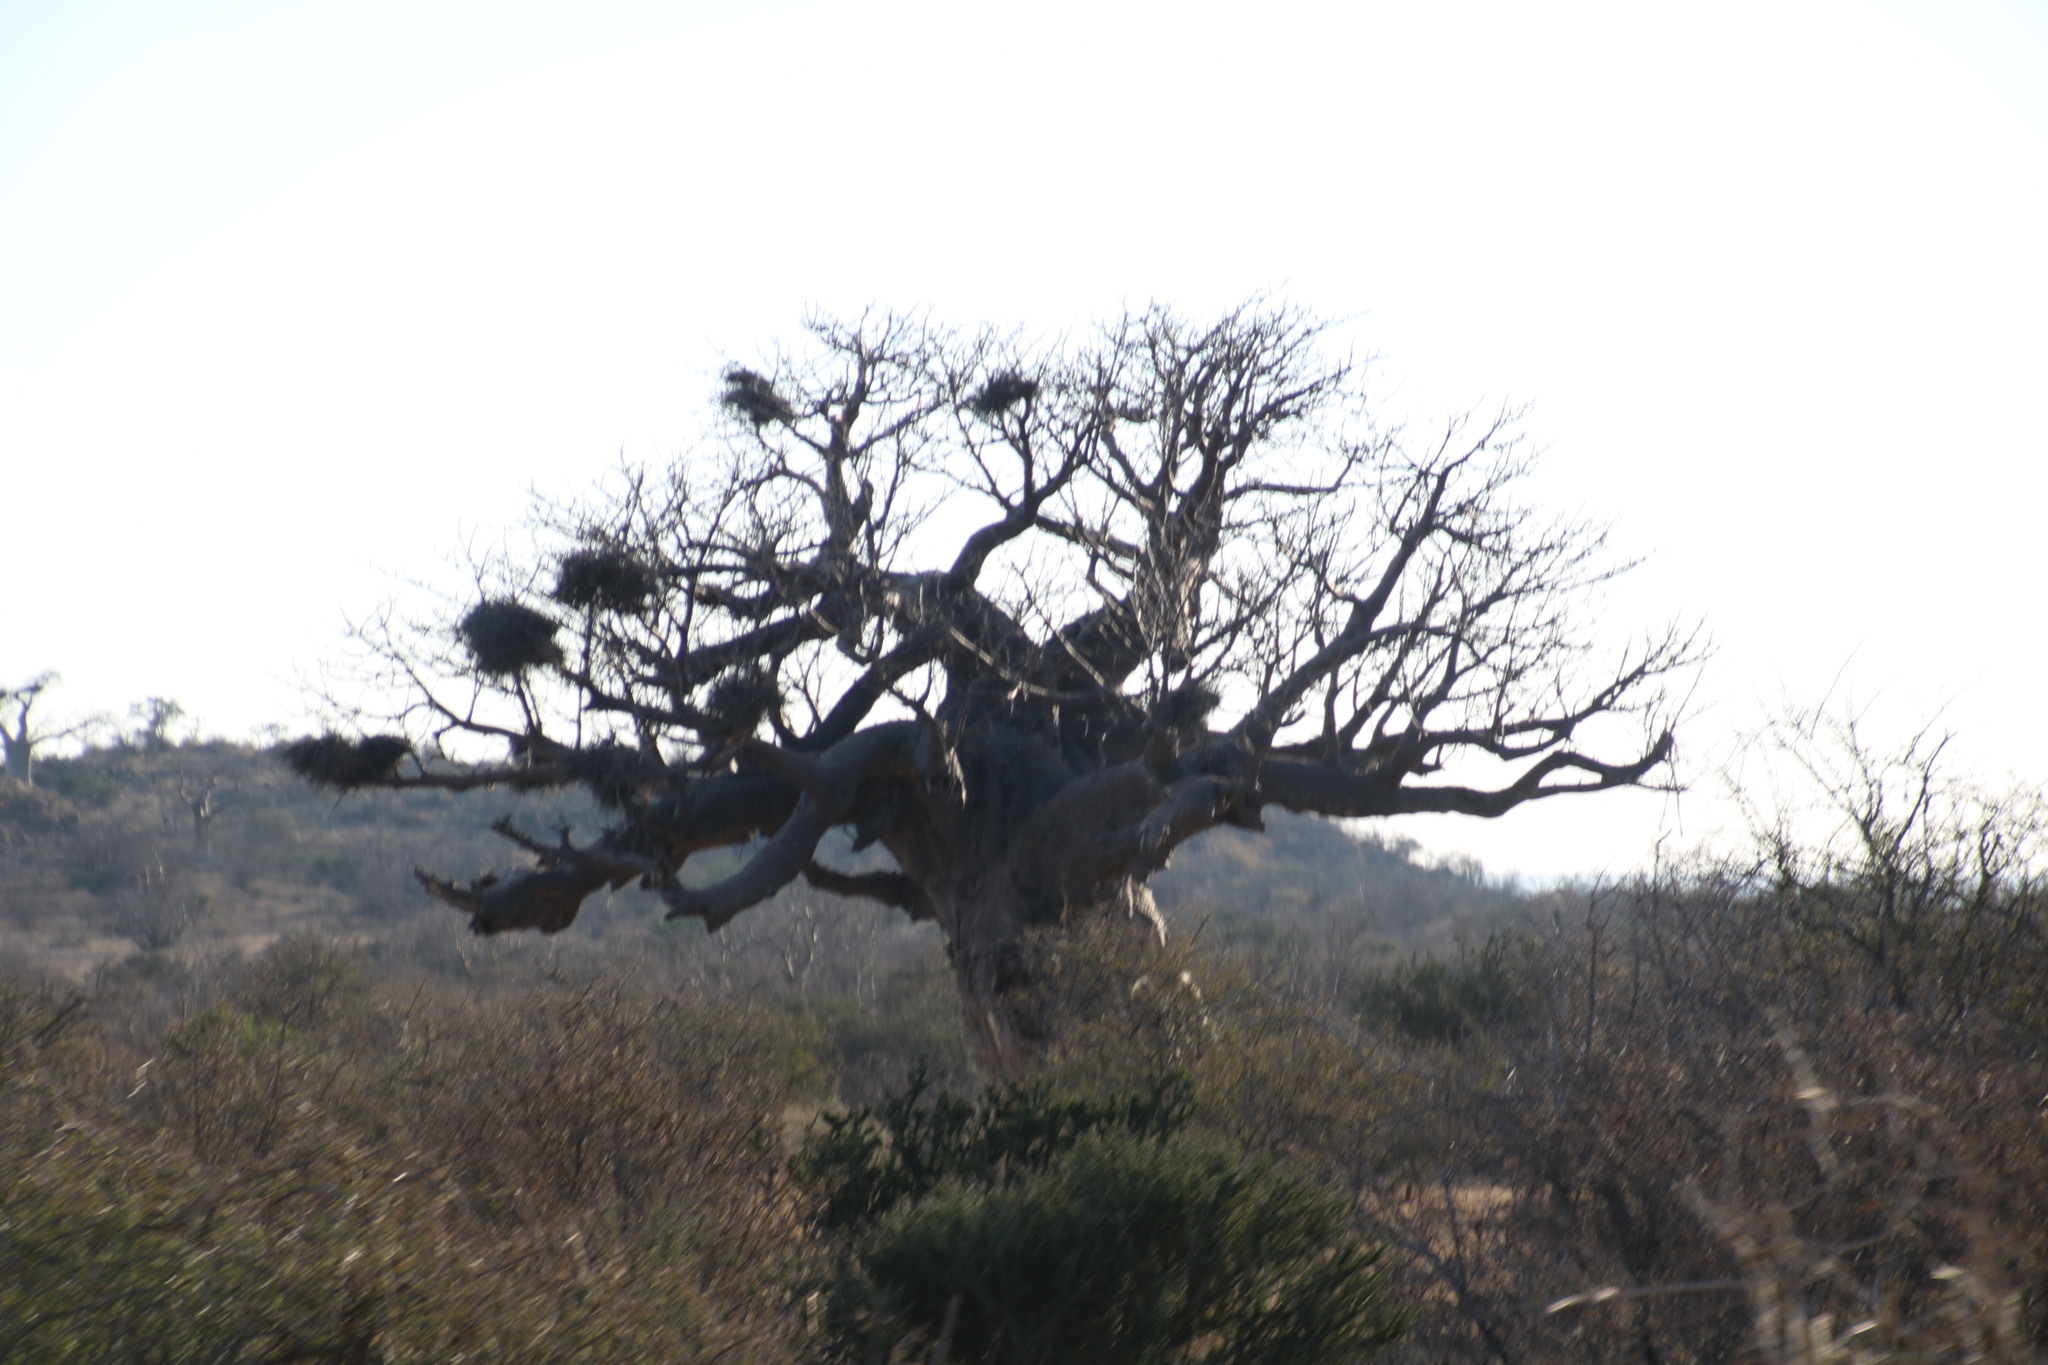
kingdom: Animalia
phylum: Chordata
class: Aves
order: Passeriformes
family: Ploceidae
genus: Bubalornis
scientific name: Bubalornis niger
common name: Red-billed buffalo weaver
